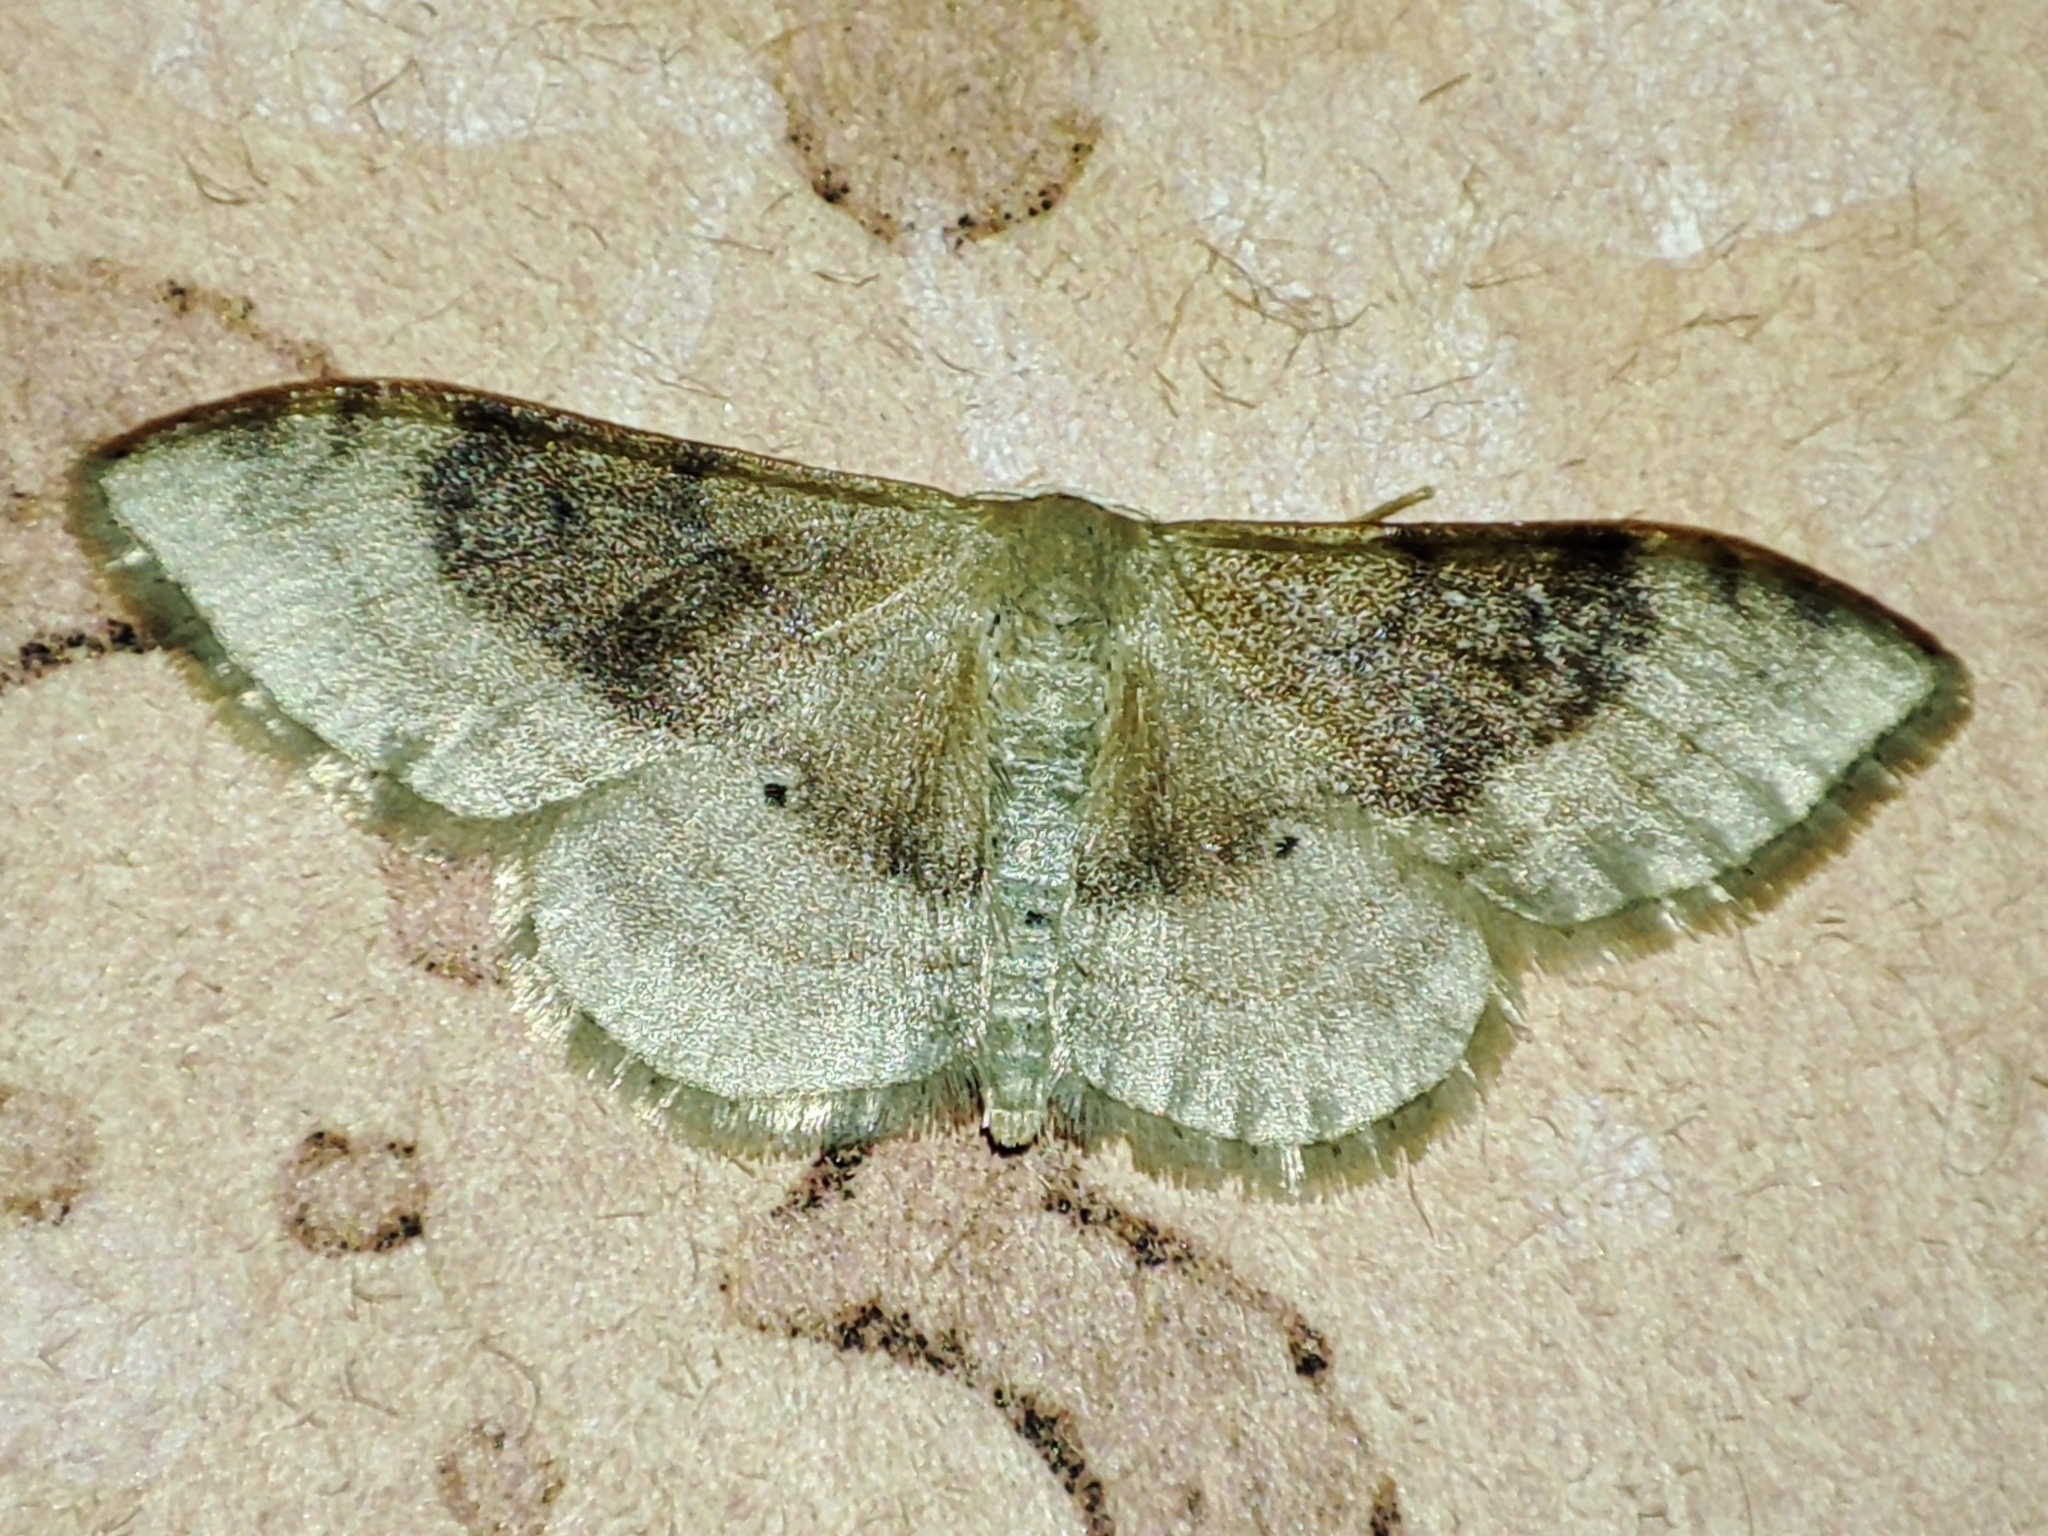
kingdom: Animalia
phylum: Arthropoda
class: Insecta
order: Lepidoptera
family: Geometridae
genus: Idaea
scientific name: Idaea degeneraria
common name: Portland ribbon wave
